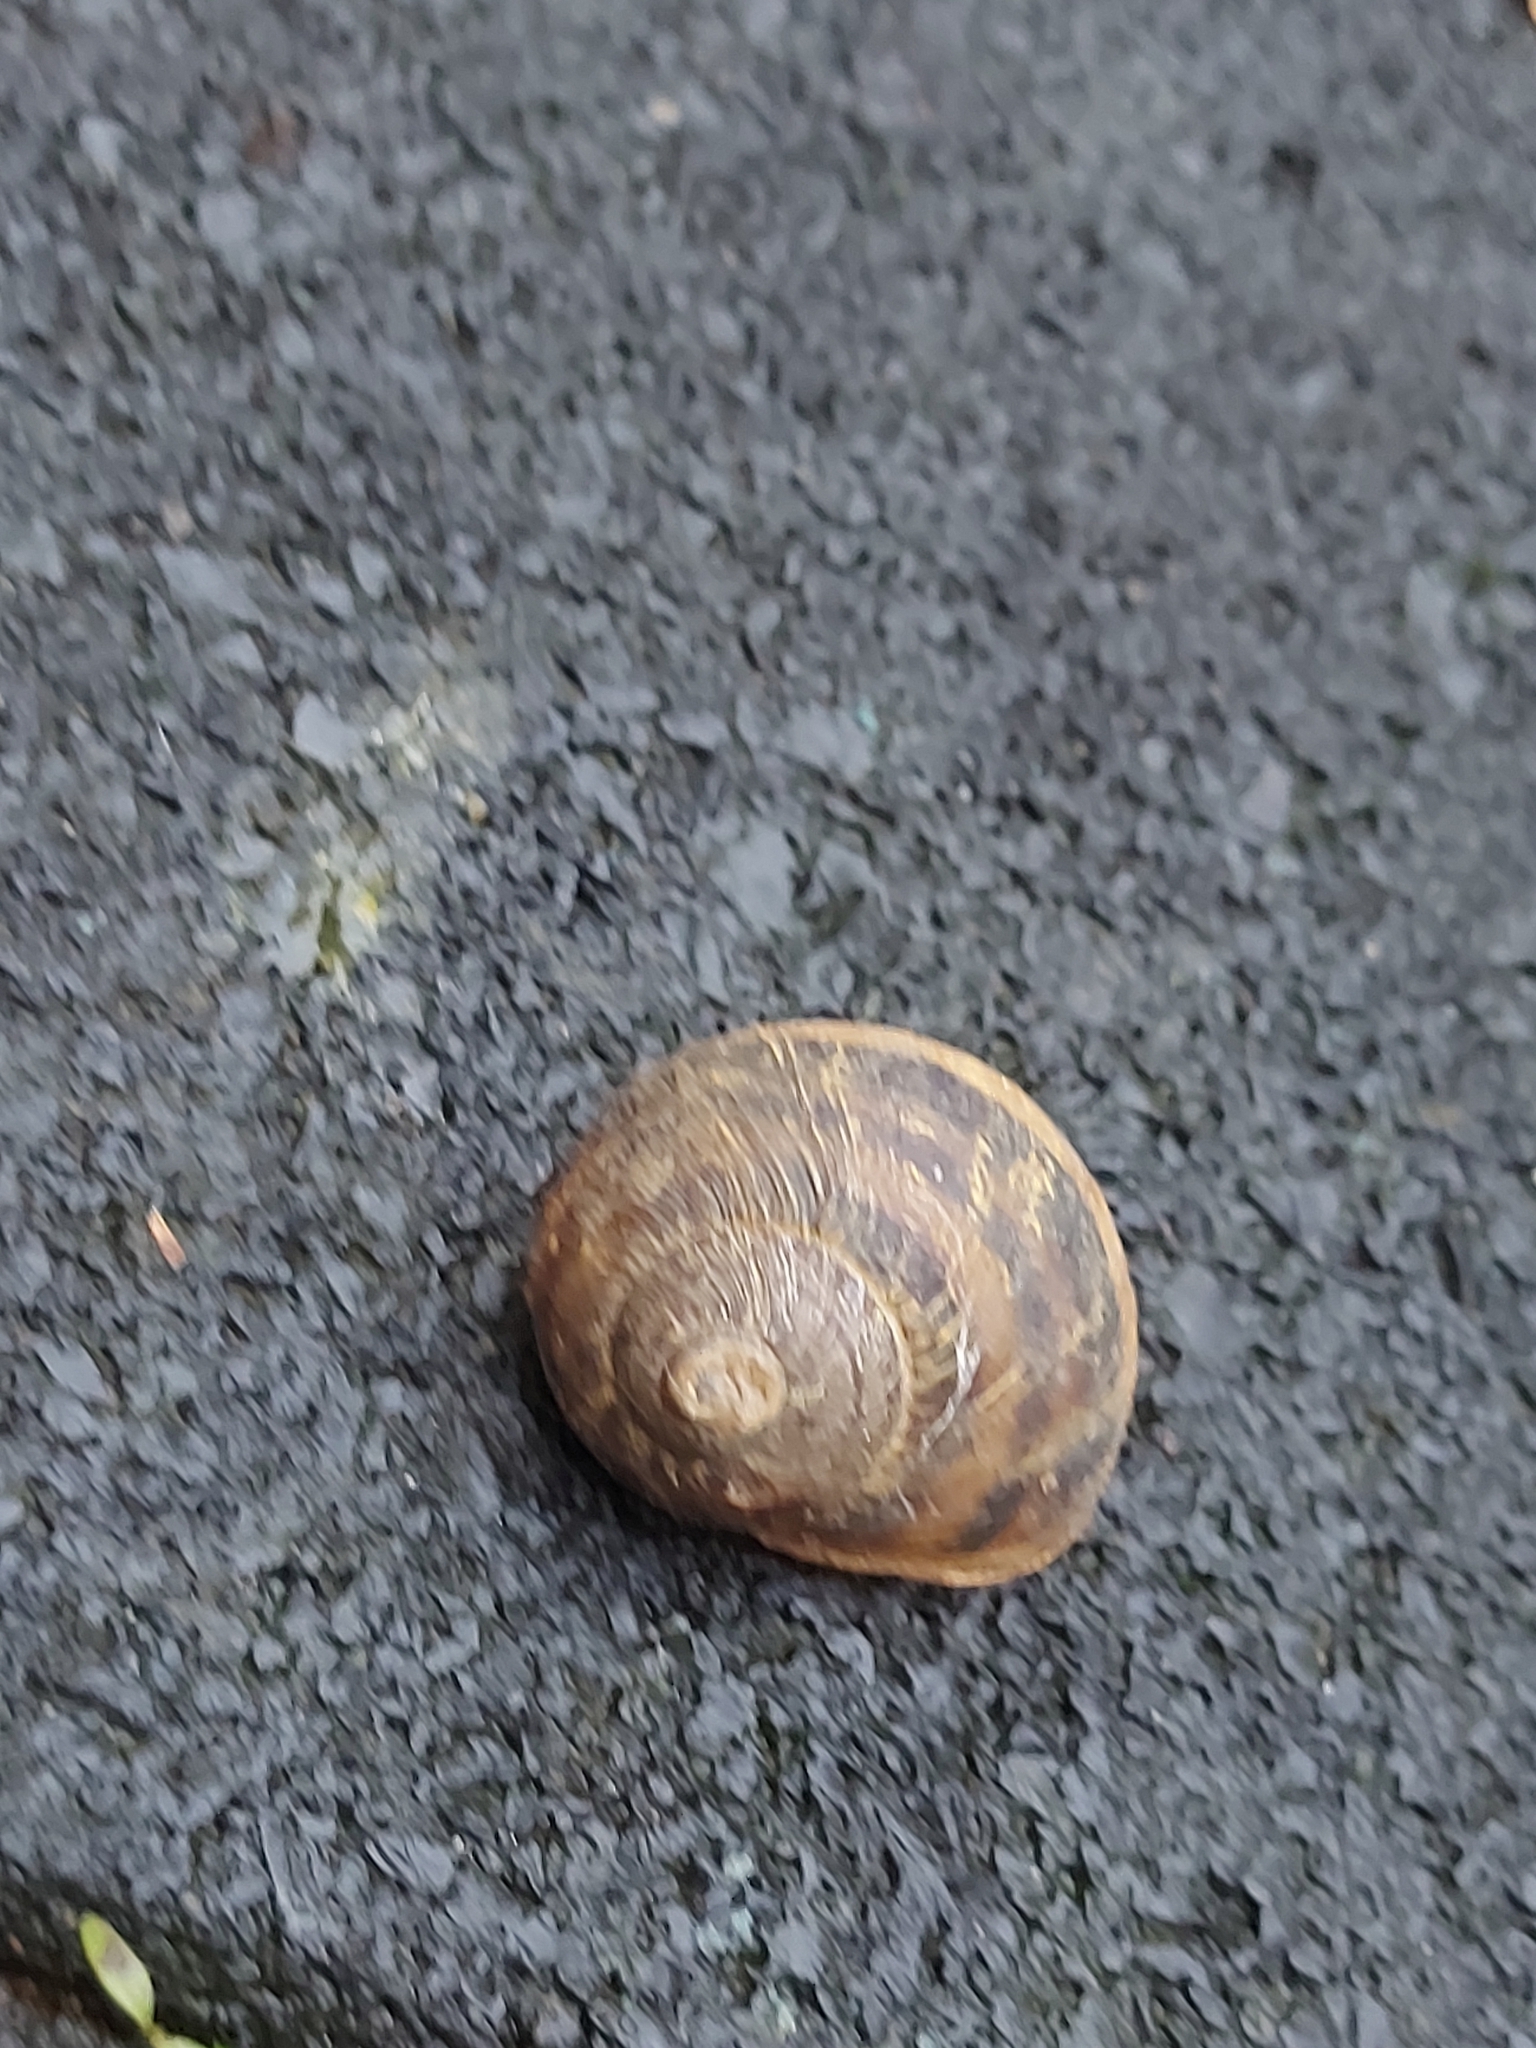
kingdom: Animalia
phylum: Mollusca
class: Gastropoda
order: Stylommatophora
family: Helicidae
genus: Cornu
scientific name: Cornu aspersum
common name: Brown garden snail
